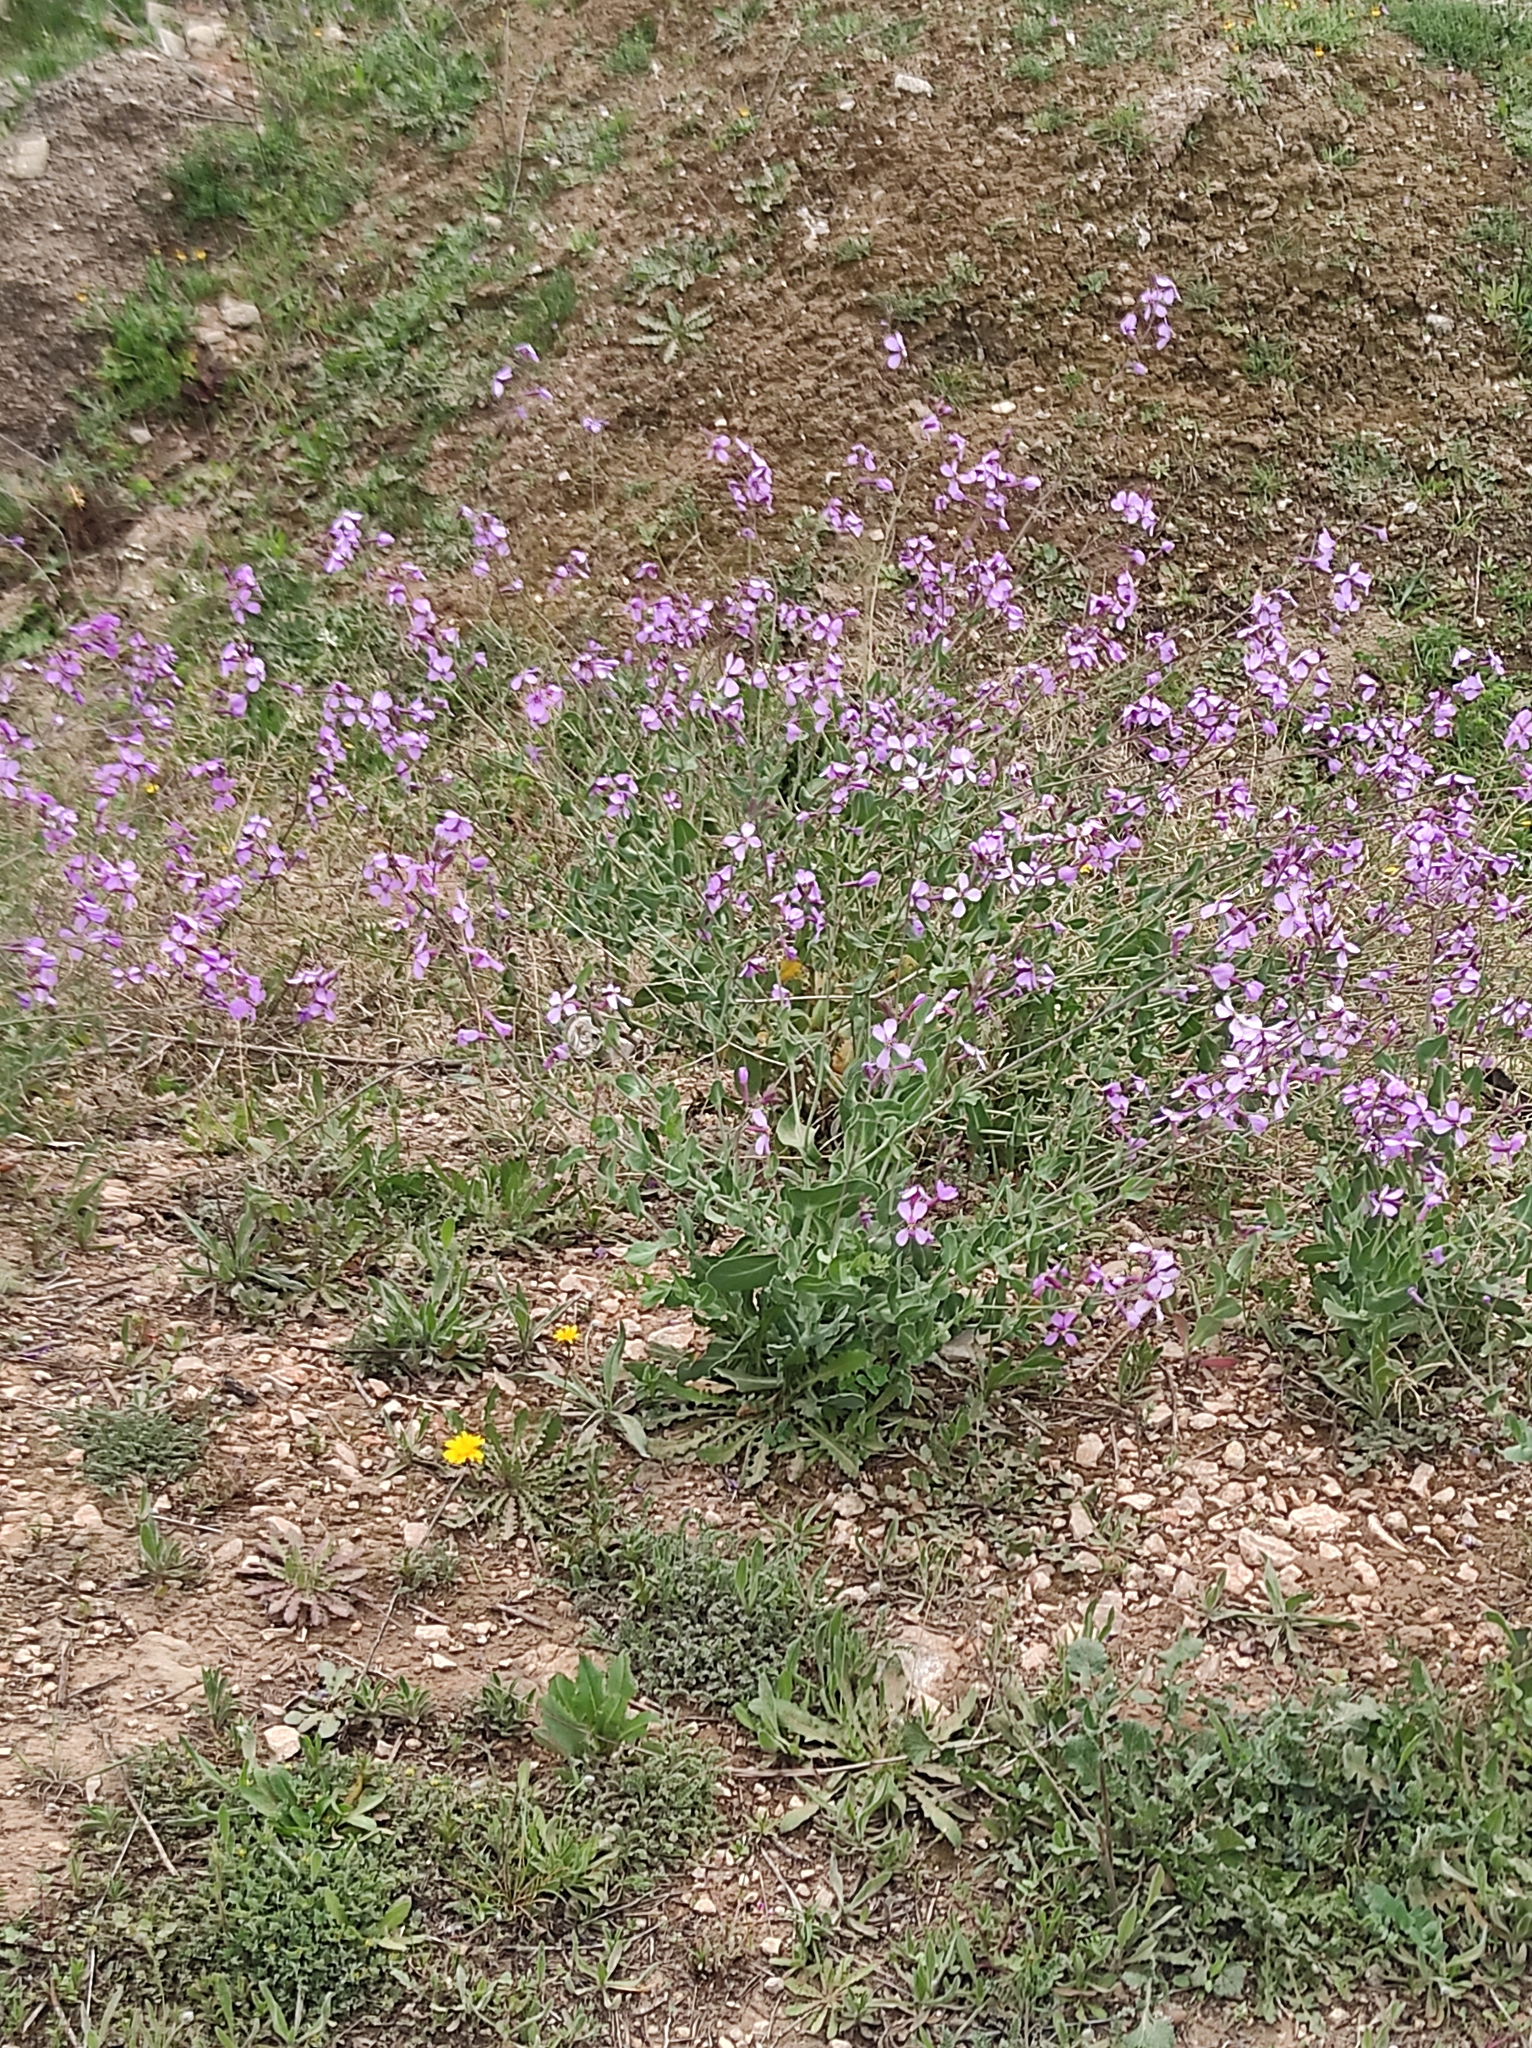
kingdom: Plantae
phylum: Tracheophyta
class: Magnoliopsida
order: Brassicales
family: Brassicaceae
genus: Moricandia
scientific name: Moricandia arvensis
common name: Purple mistress
